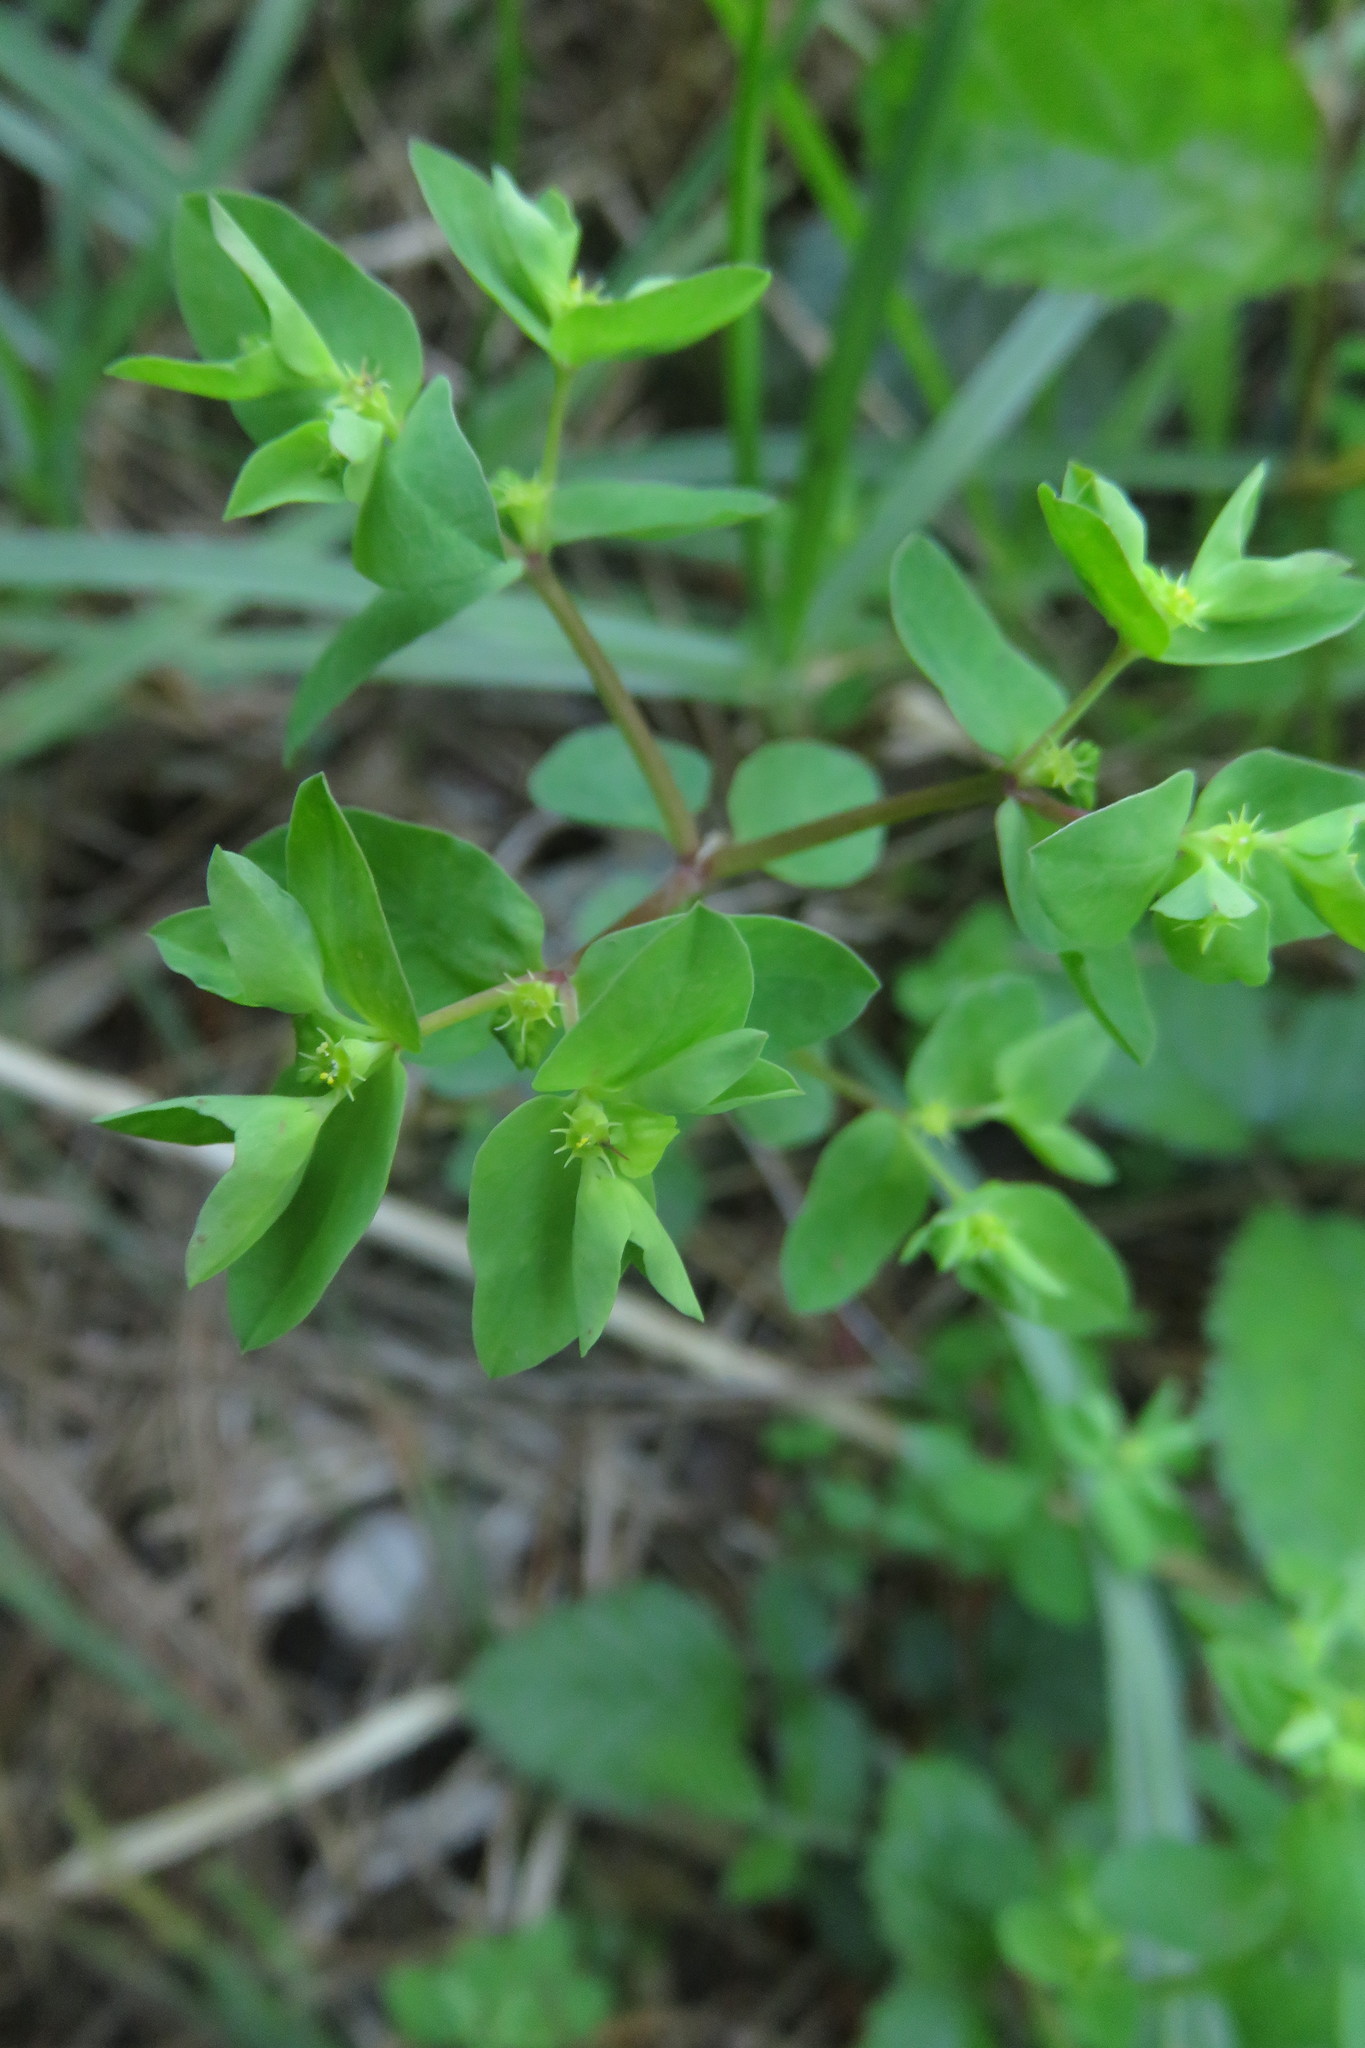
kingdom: Plantae
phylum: Tracheophyta
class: Magnoliopsida
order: Malpighiales
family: Euphorbiaceae
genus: Euphorbia
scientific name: Euphorbia peplus
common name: Petty spurge
